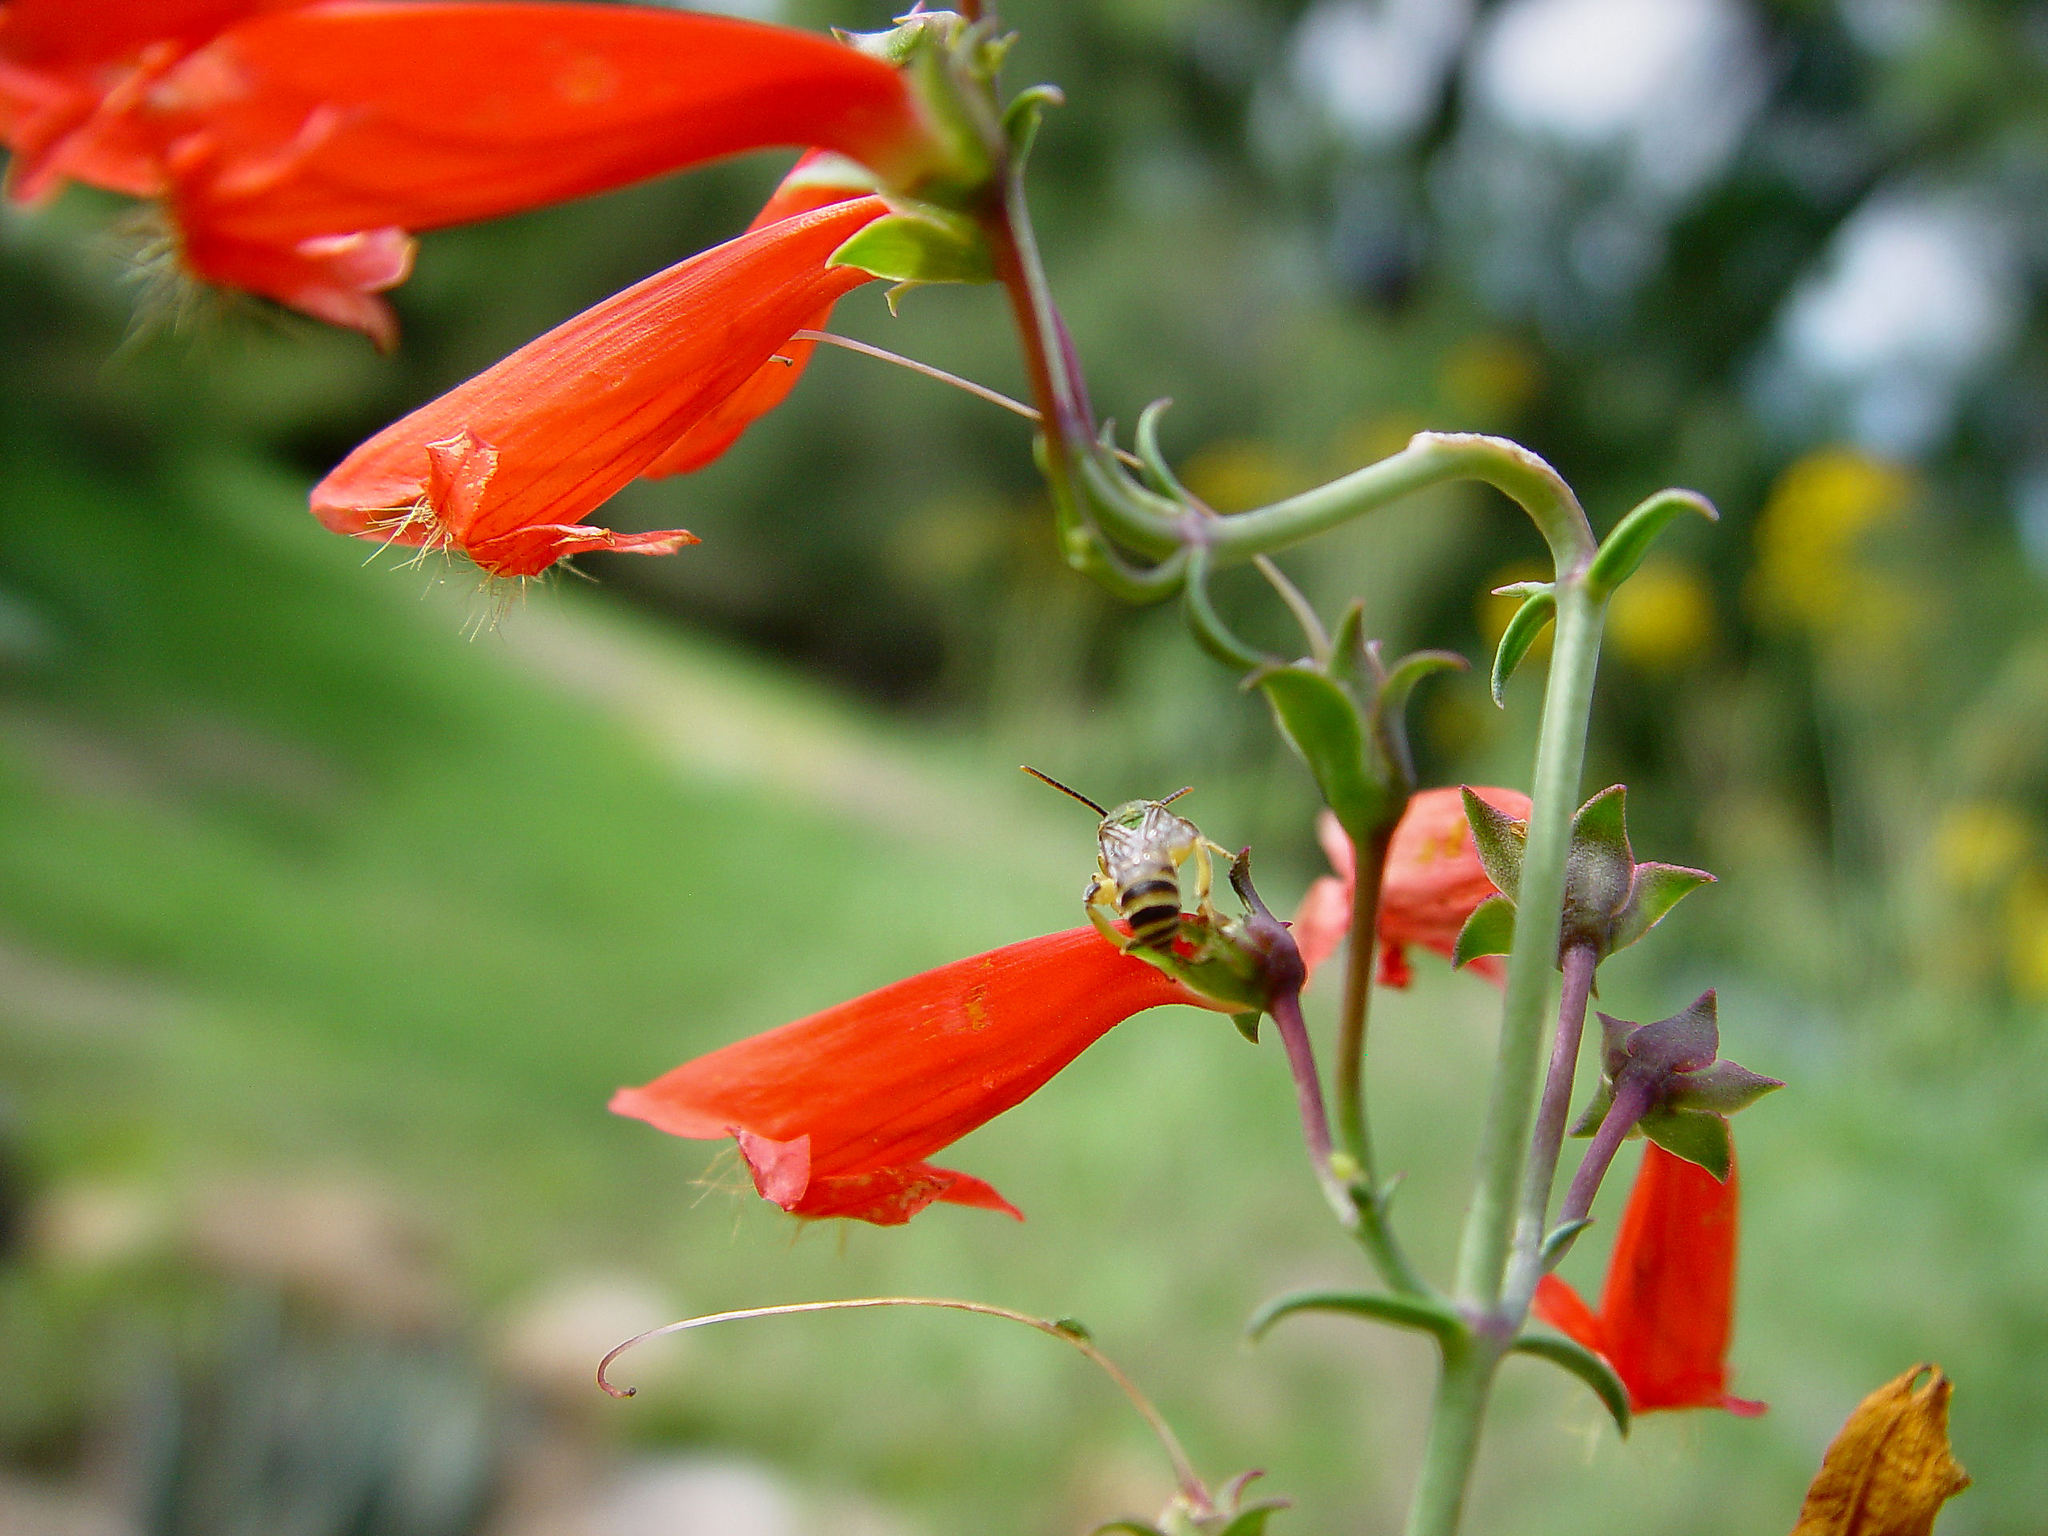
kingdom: Plantae
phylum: Tracheophyta
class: Magnoliopsida
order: Lamiales
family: Plantaginaceae
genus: Penstemon
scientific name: Penstemon barbatus
